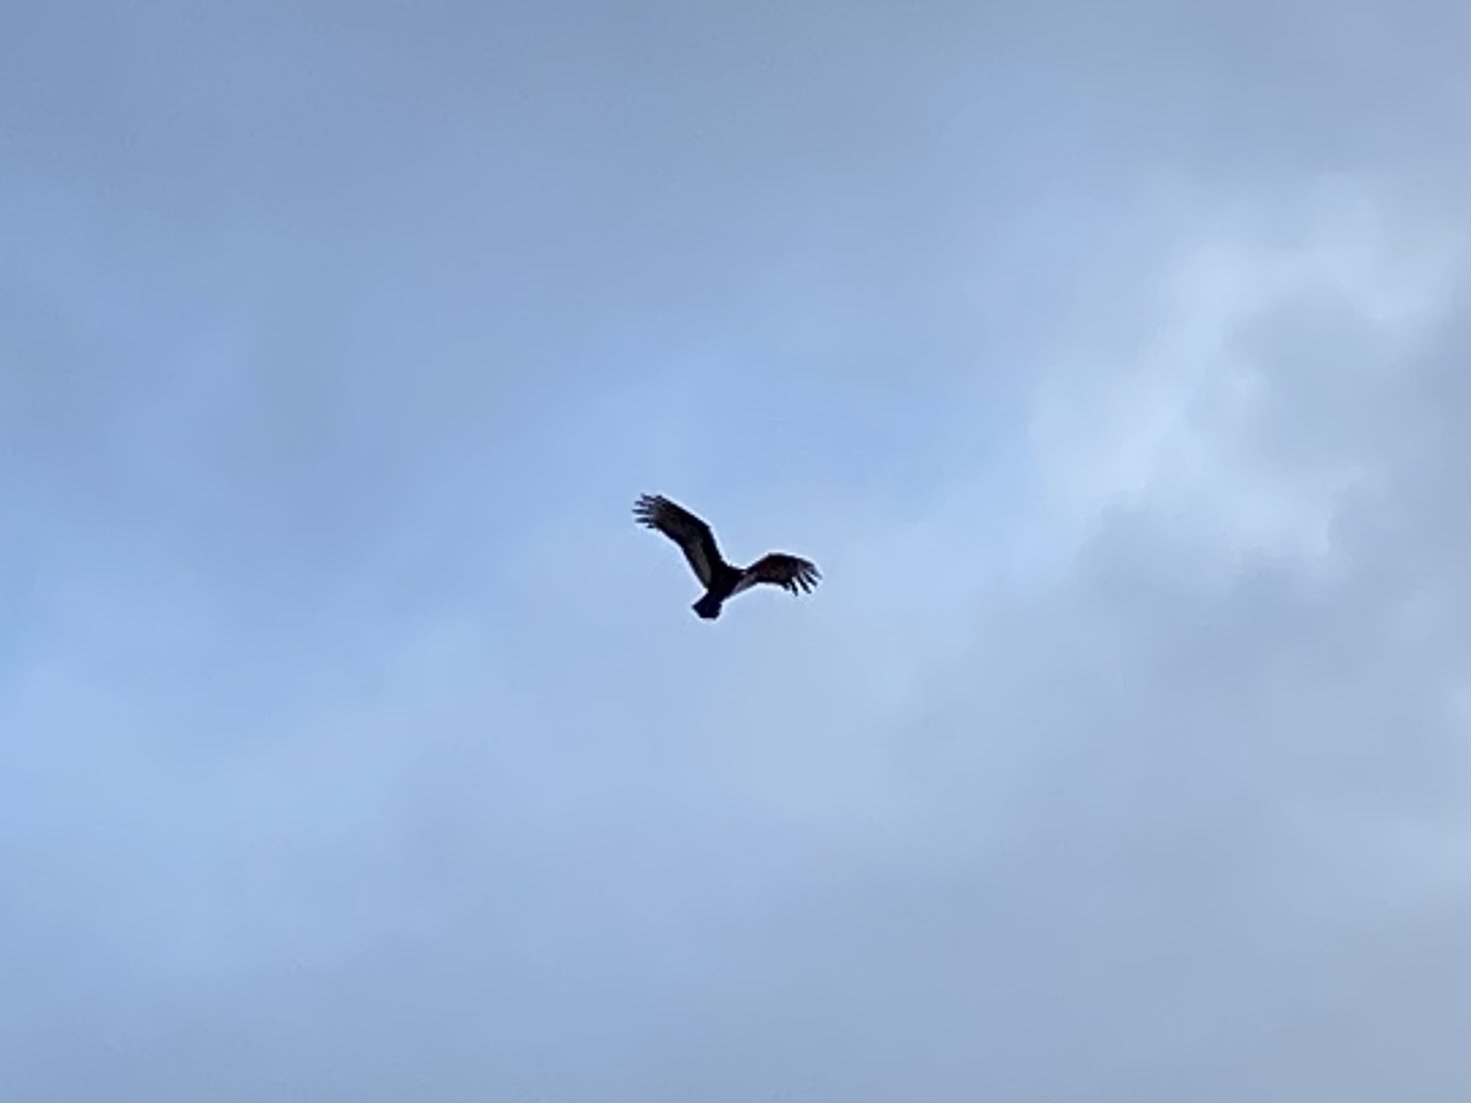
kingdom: Animalia
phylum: Chordata
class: Aves
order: Accipitriformes
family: Cathartidae
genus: Cathartes
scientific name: Cathartes aura
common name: Turkey vulture
